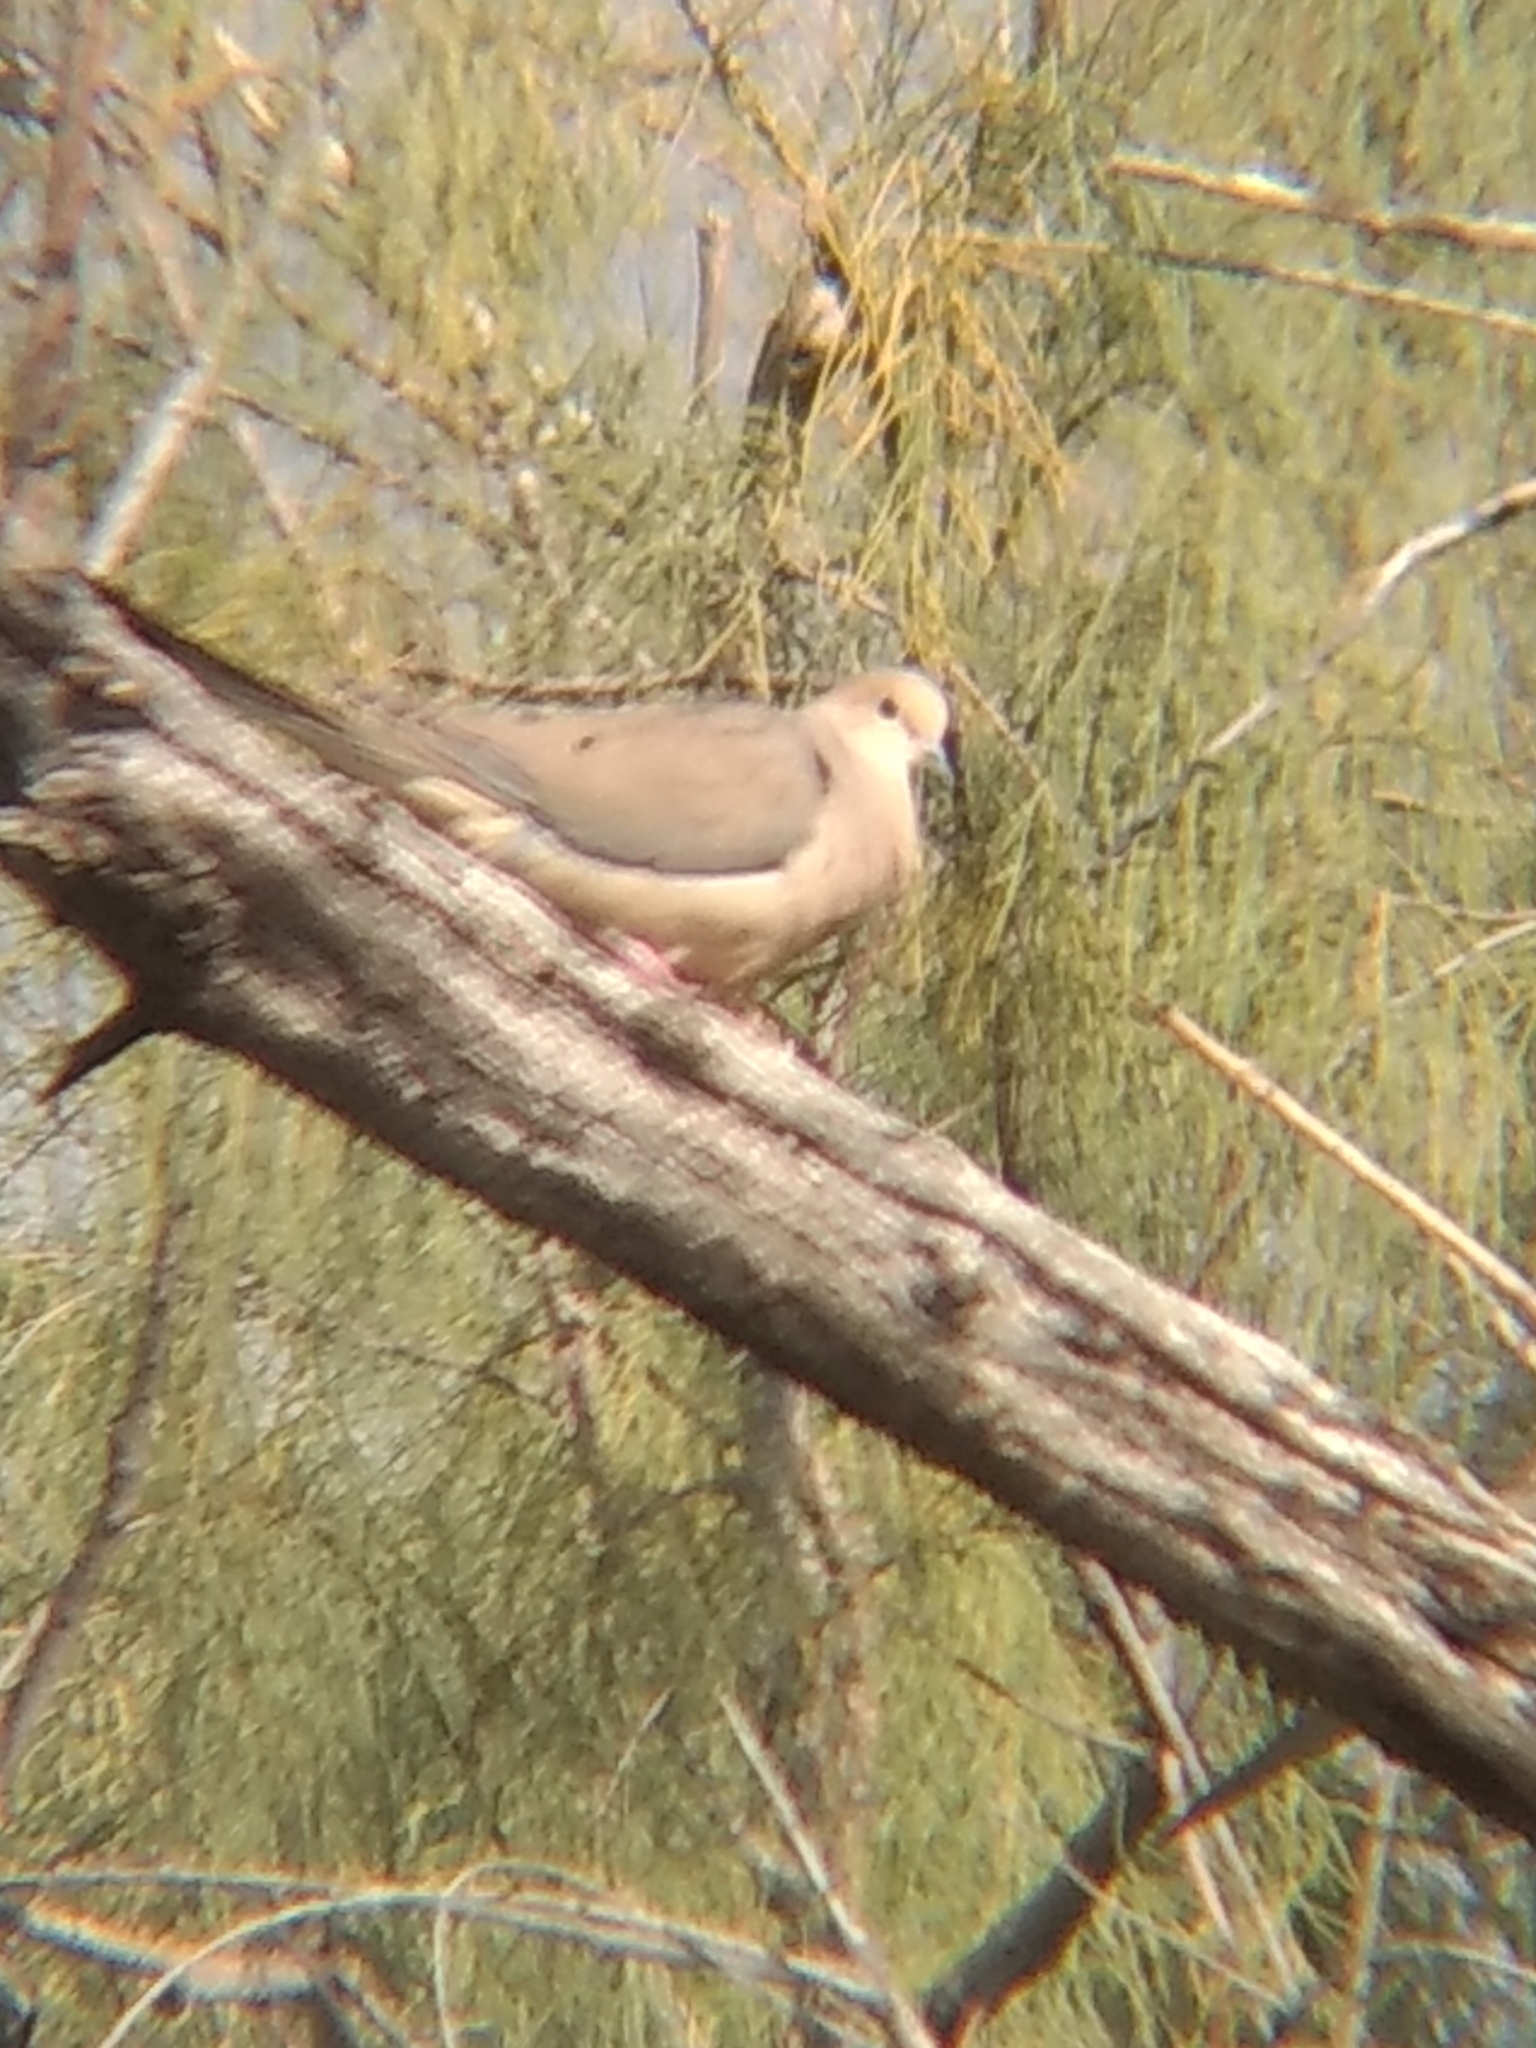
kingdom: Animalia
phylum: Chordata
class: Aves
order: Columbiformes
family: Columbidae
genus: Zenaida
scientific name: Zenaida macroura
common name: Mourning dove
